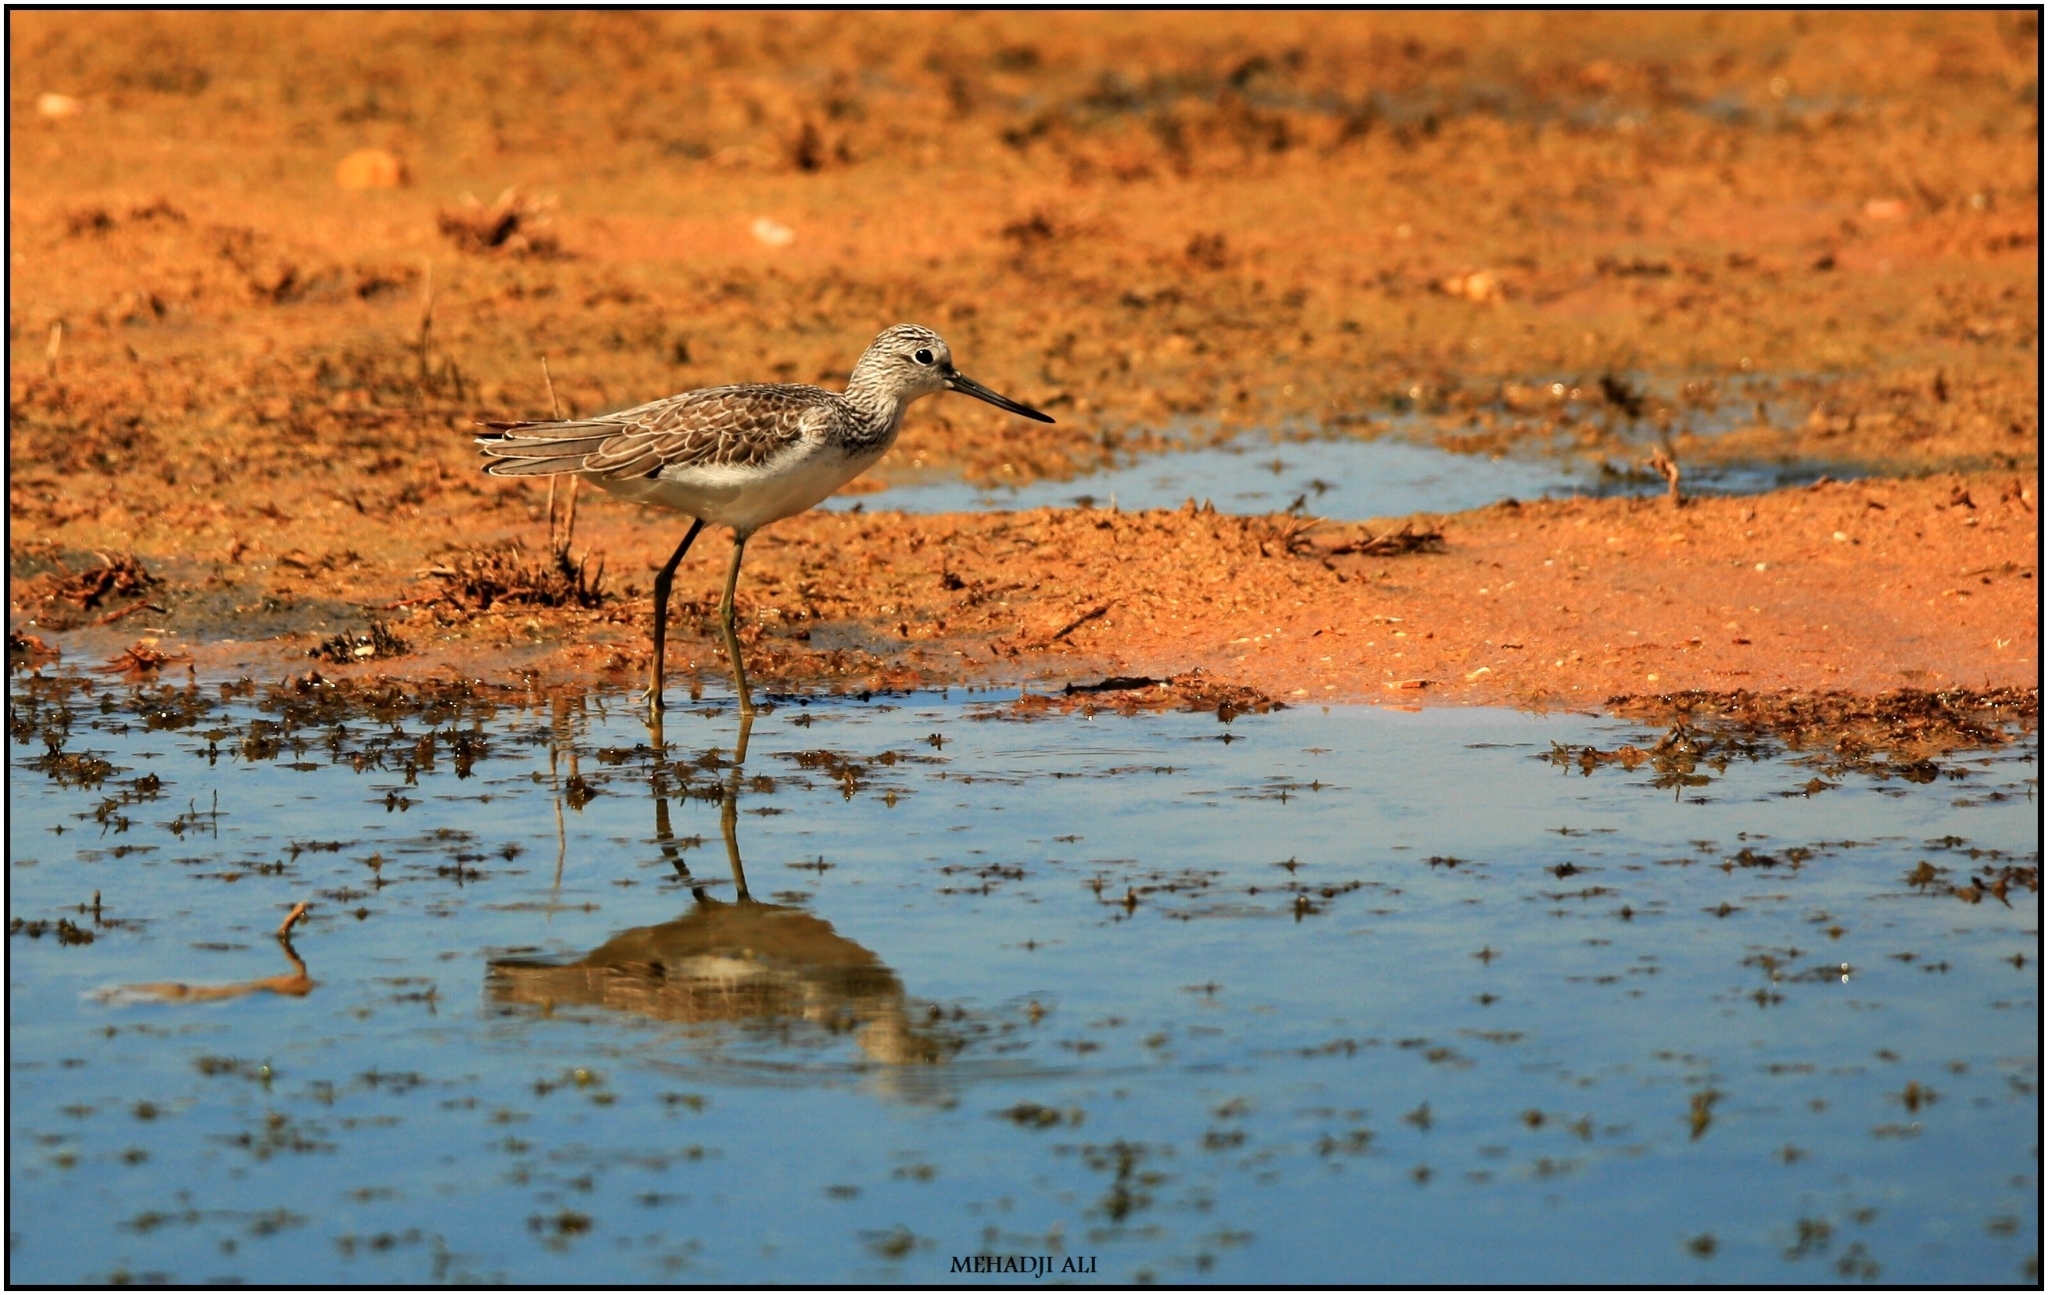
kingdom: Animalia
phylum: Chordata
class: Aves
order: Charadriiformes
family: Scolopacidae
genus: Tringa
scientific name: Tringa nebularia
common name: Common greenshank
